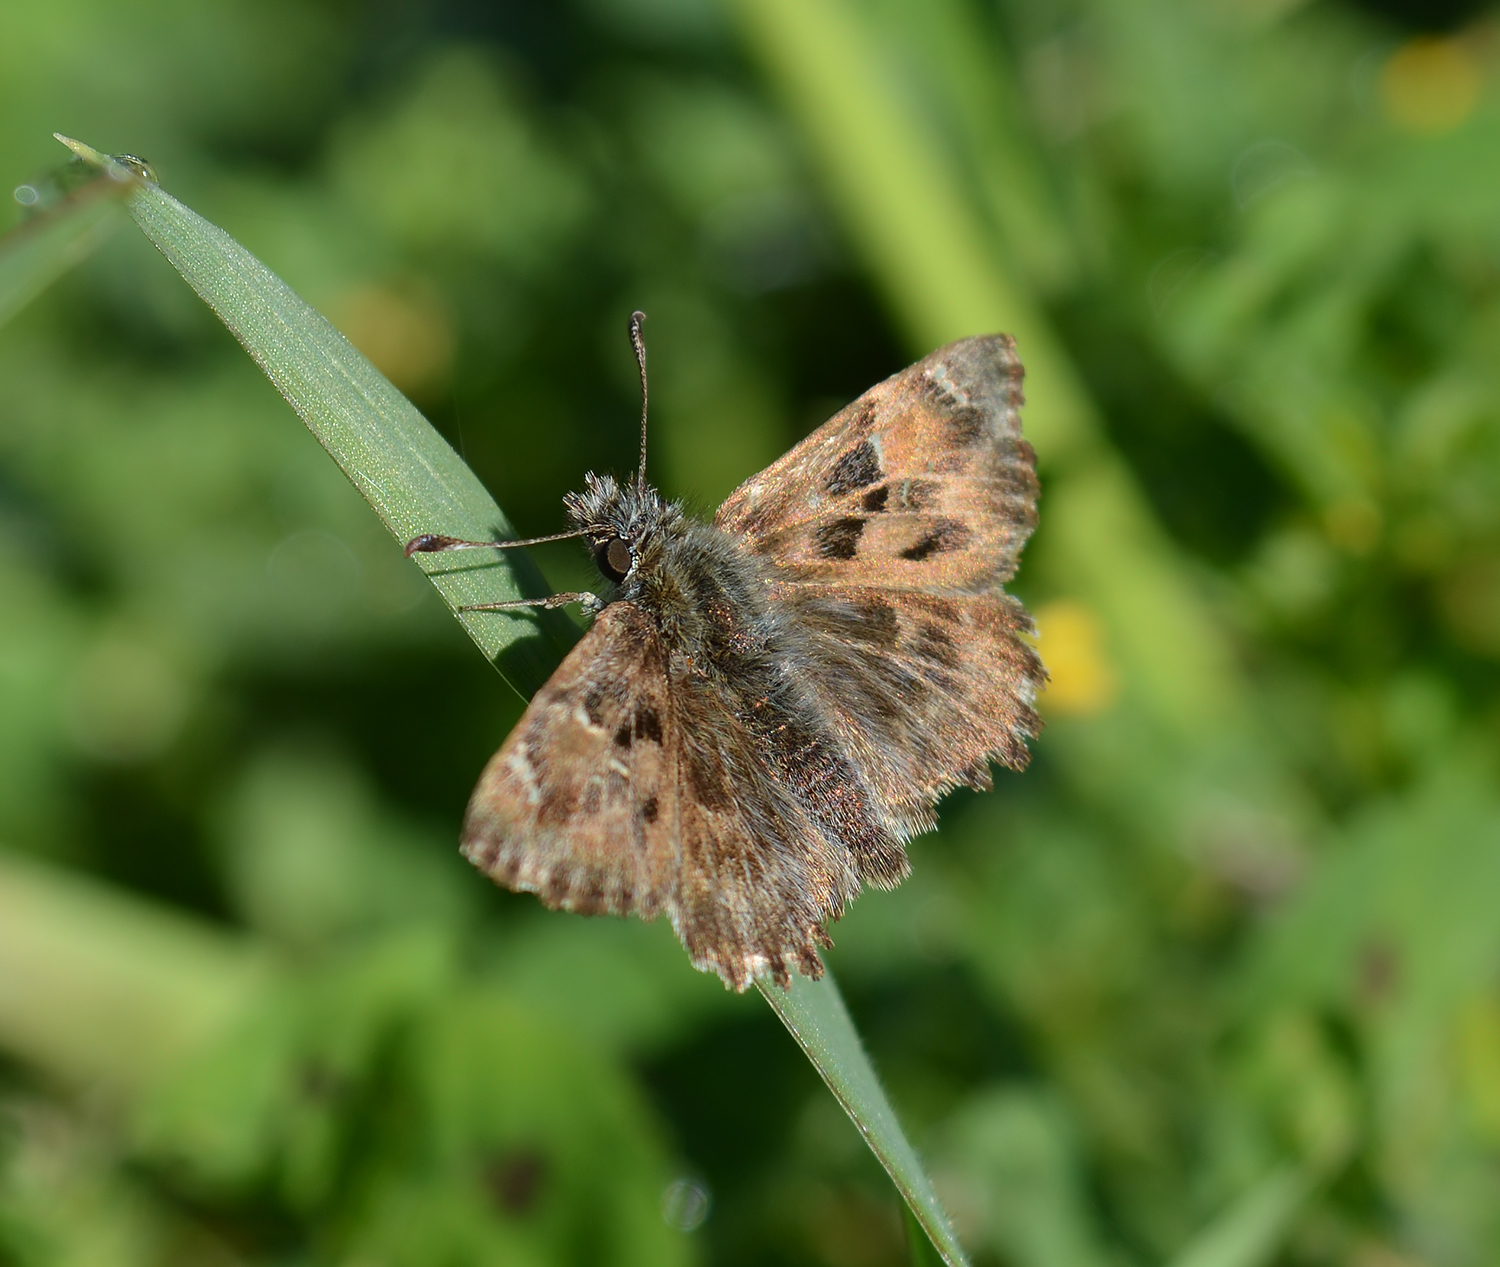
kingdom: Animalia
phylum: Arthropoda
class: Insecta
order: Lepidoptera
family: Hesperiidae
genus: Carcharodus
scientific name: Carcharodus alceae
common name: Mallow skipper
